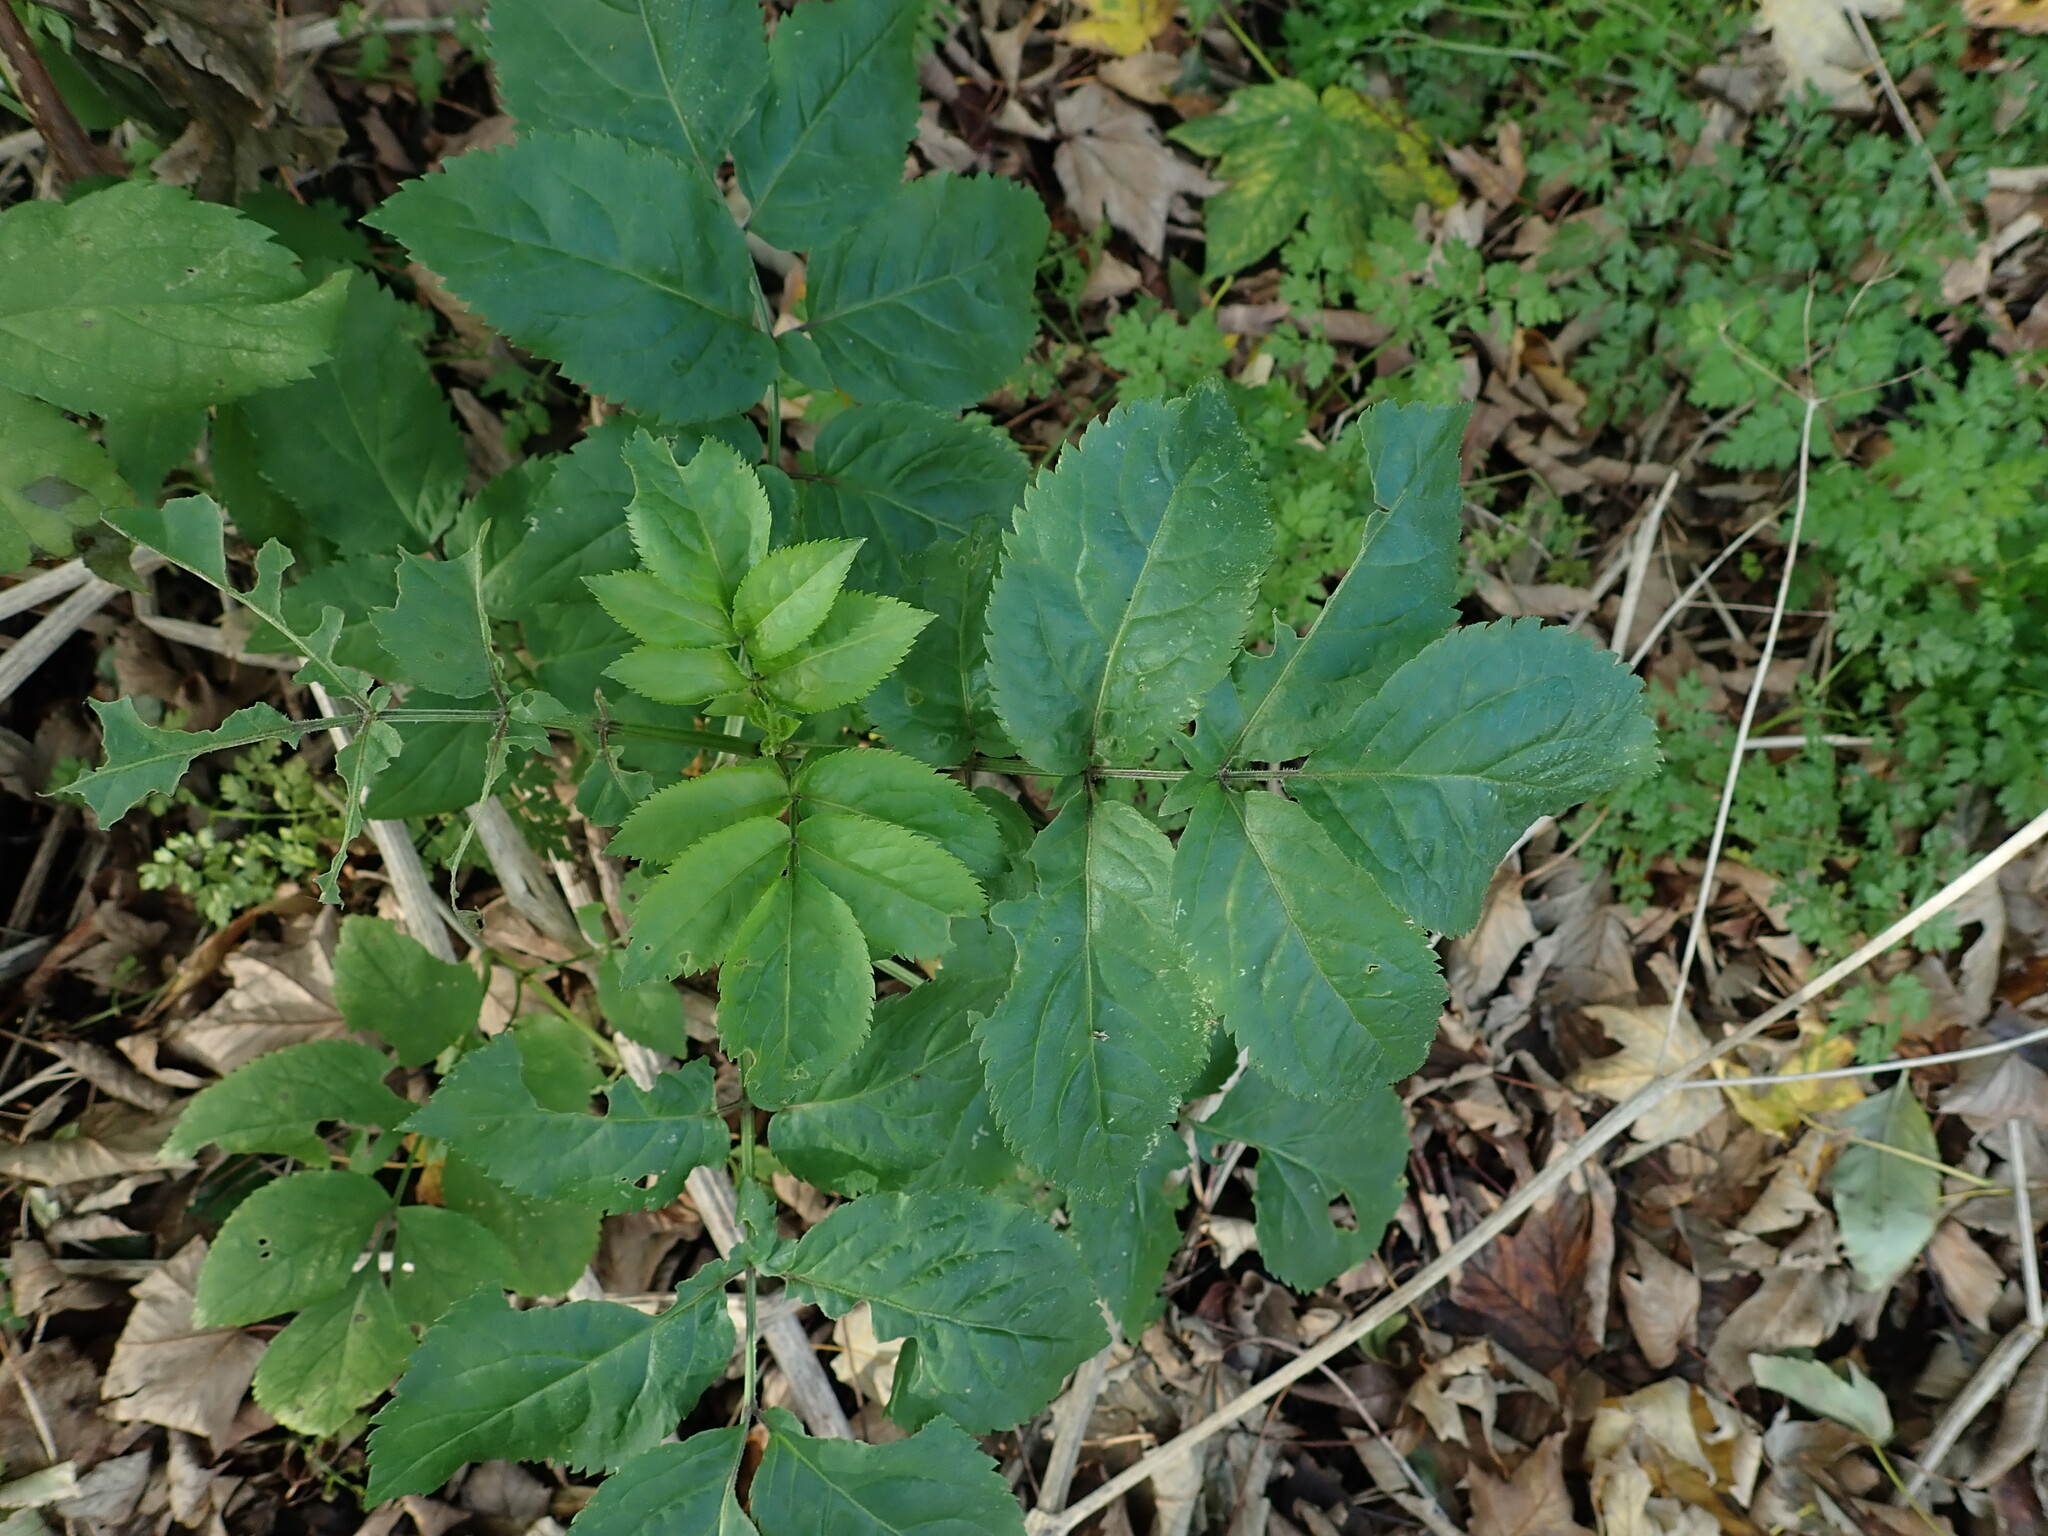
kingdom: Plantae
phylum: Tracheophyta
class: Magnoliopsida
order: Dipsacales
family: Viburnaceae
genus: Sambucus
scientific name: Sambucus nigra
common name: Elder
